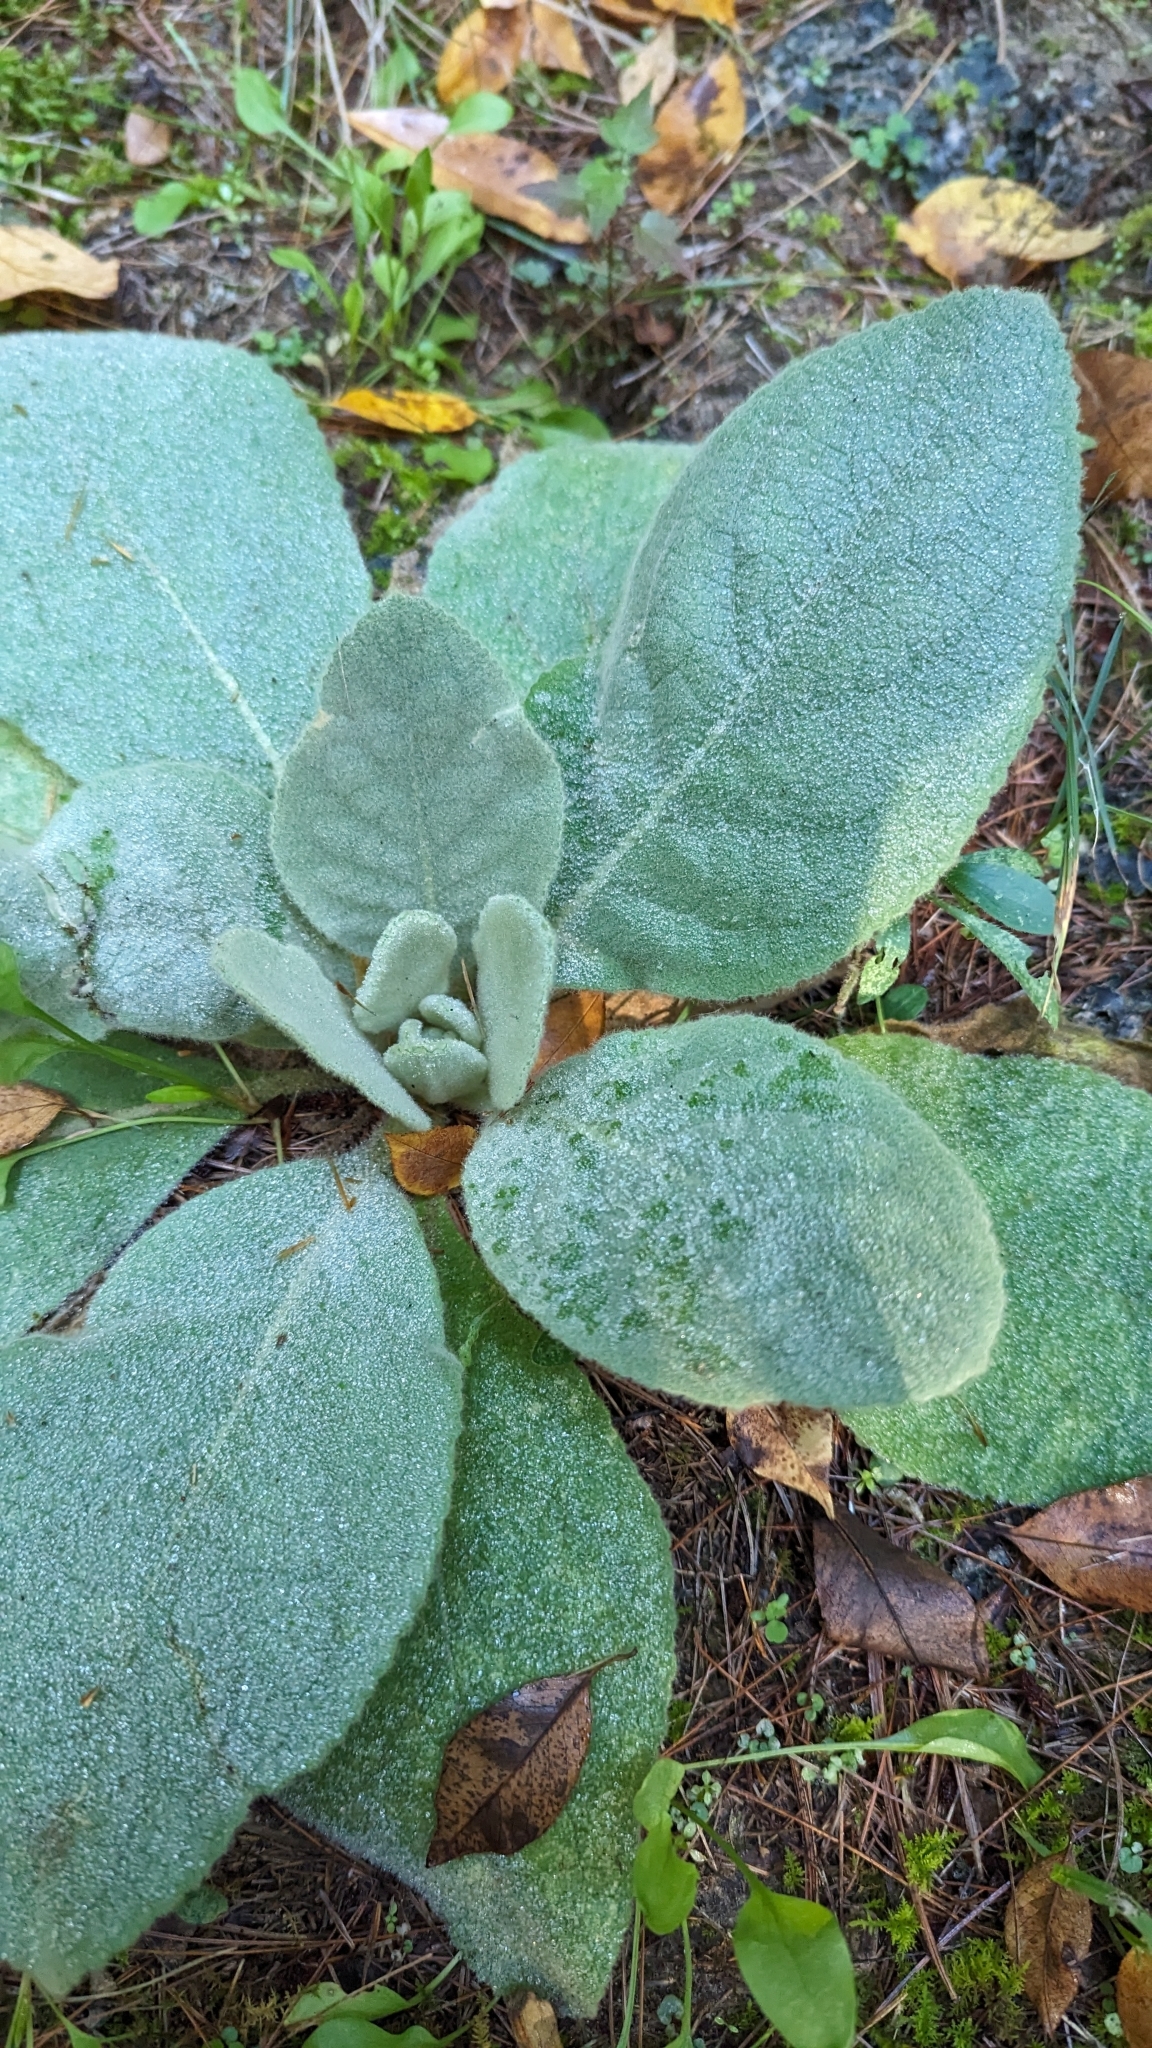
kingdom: Plantae
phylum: Tracheophyta
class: Magnoliopsida
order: Lamiales
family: Scrophulariaceae
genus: Verbascum
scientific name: Verbascum thapsus
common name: Common mullein
